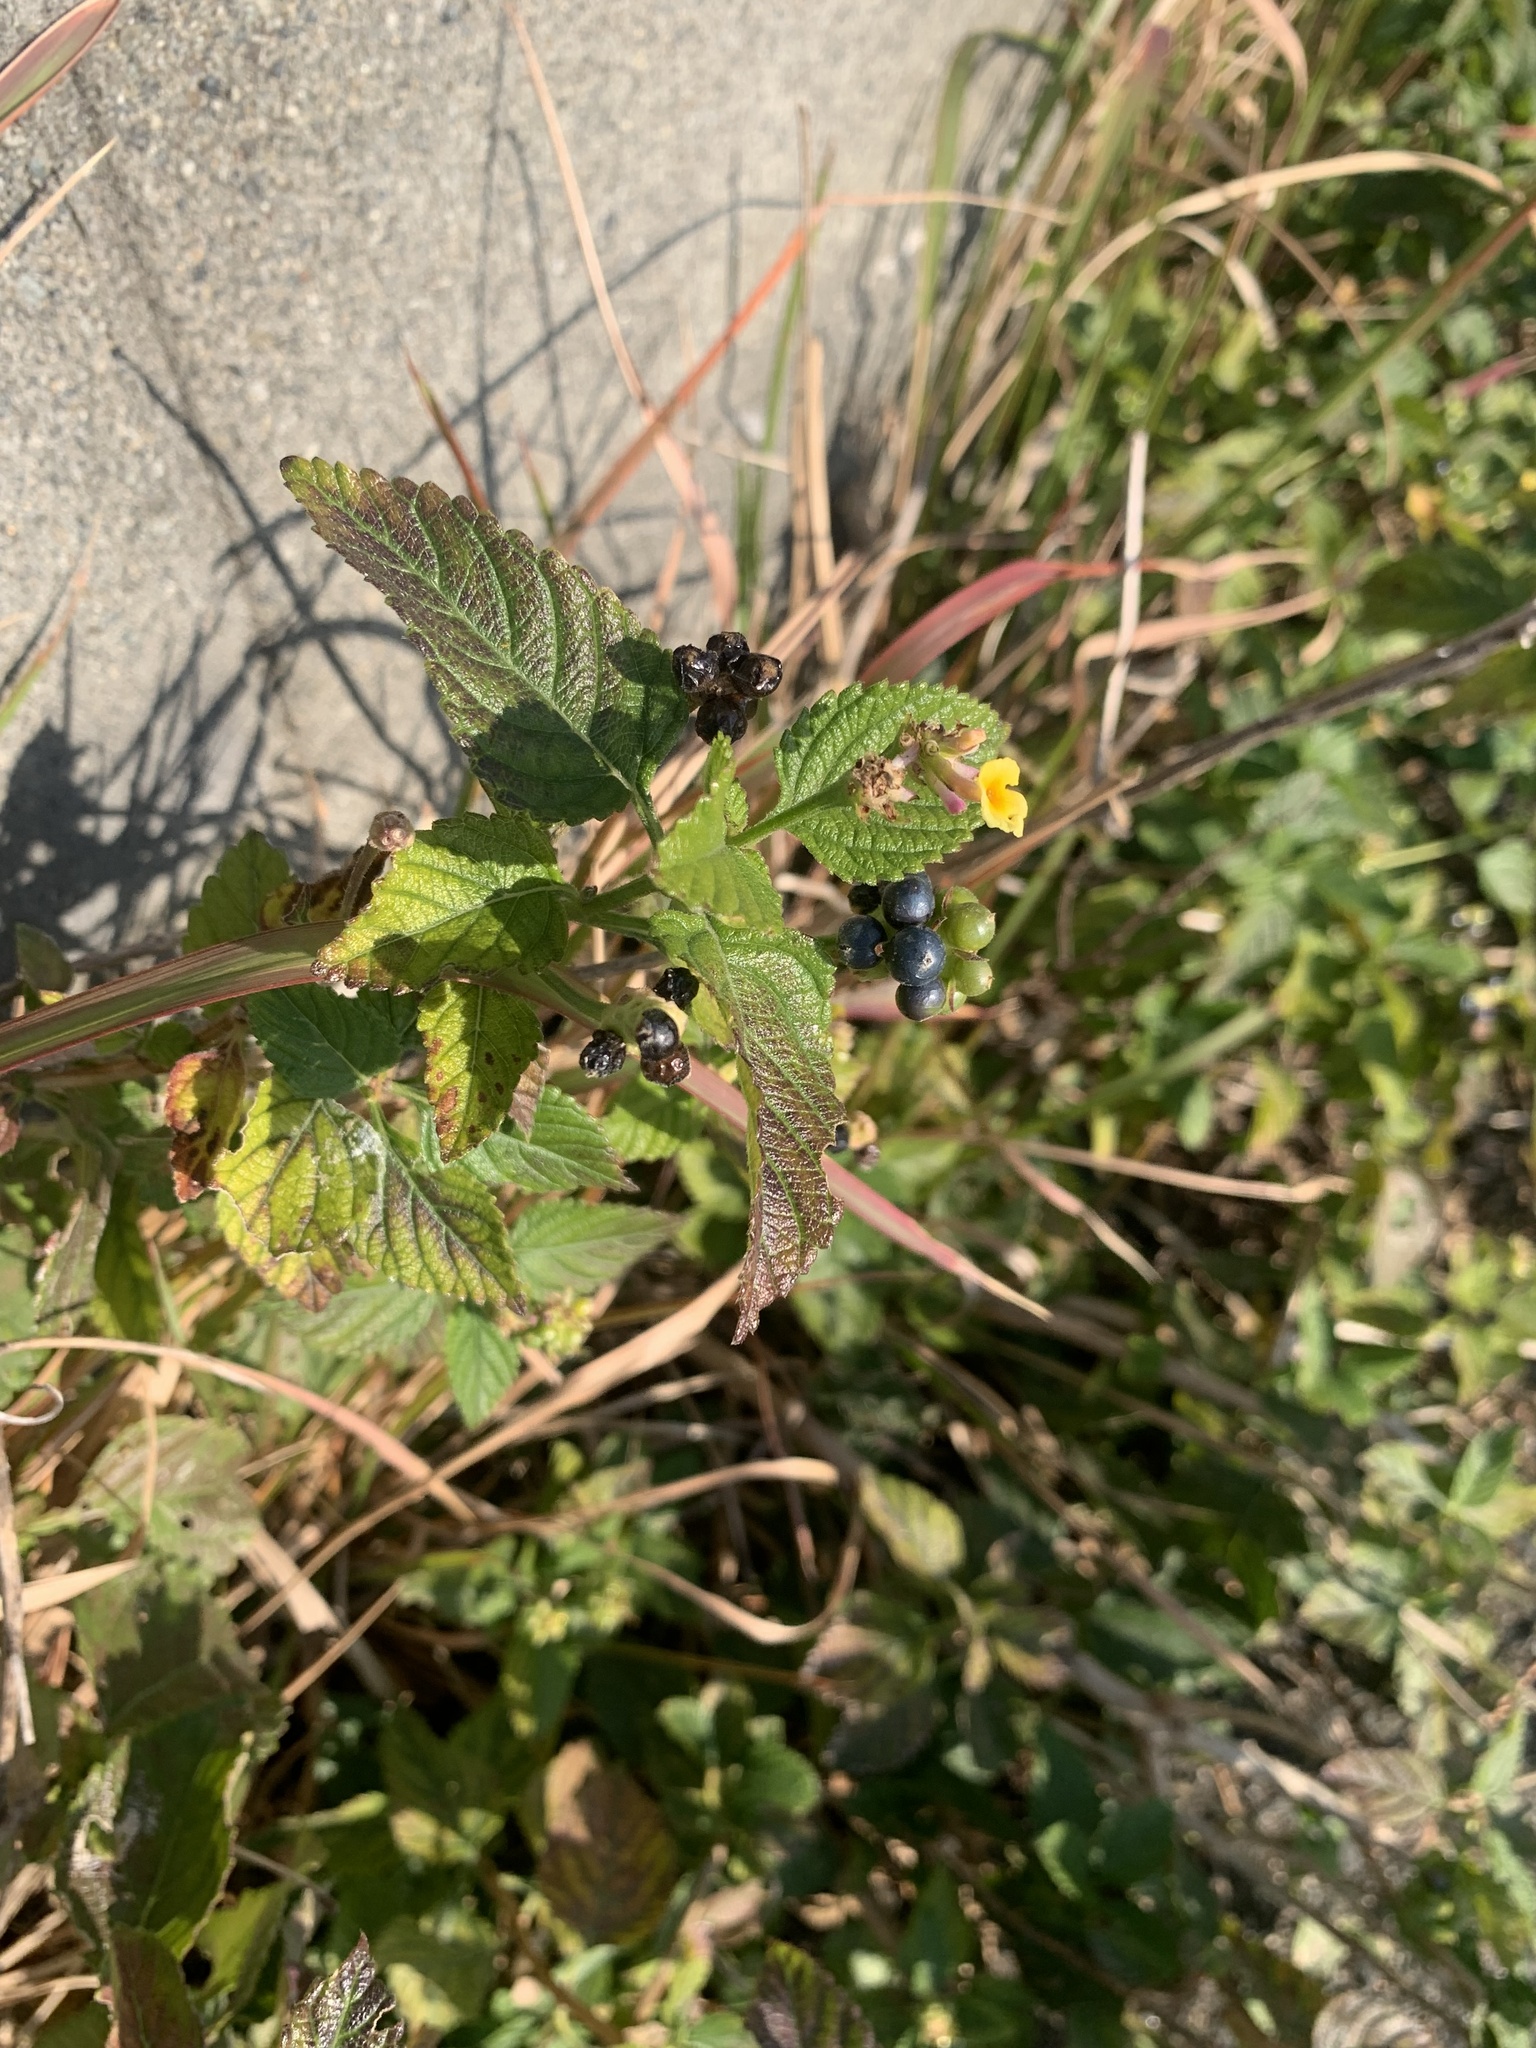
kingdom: Plantae
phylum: Tracheophyta
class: Magnoliopsida
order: Lamiales
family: Verbenaceae
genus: Lantana
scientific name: Lantana camara
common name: Lantana
